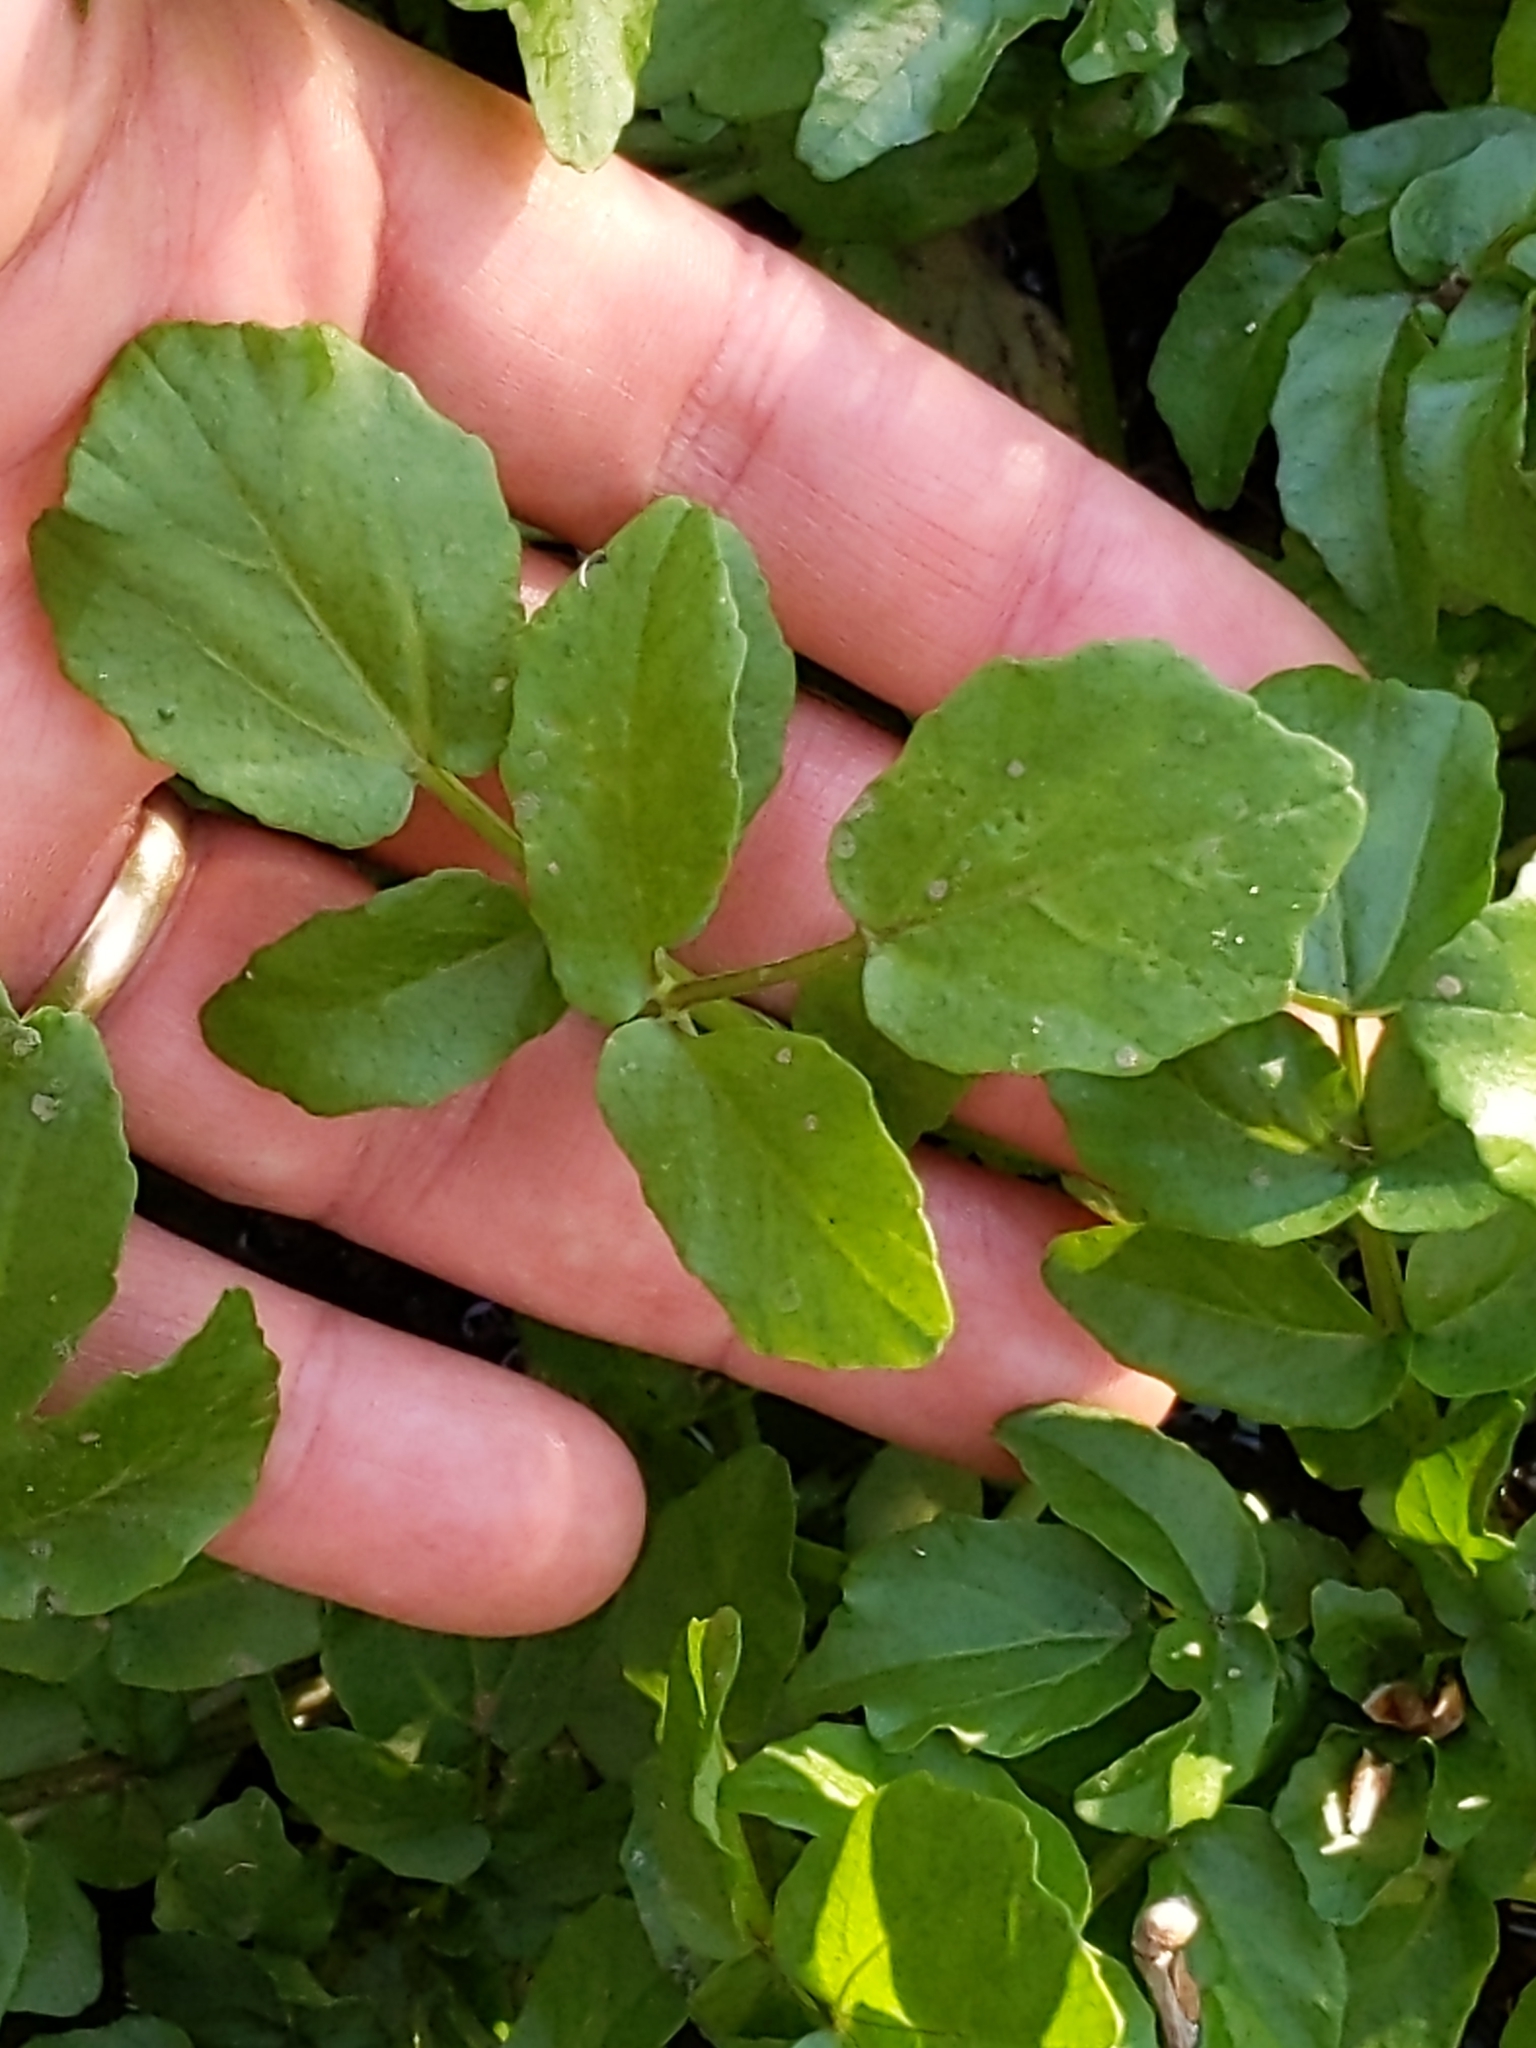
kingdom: Plantae
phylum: Tracheophyta
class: Magnoliopsida
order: Brassicales
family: Brassicaceae
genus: Nasturtium
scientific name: Nasturtium officinale
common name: Watercress
